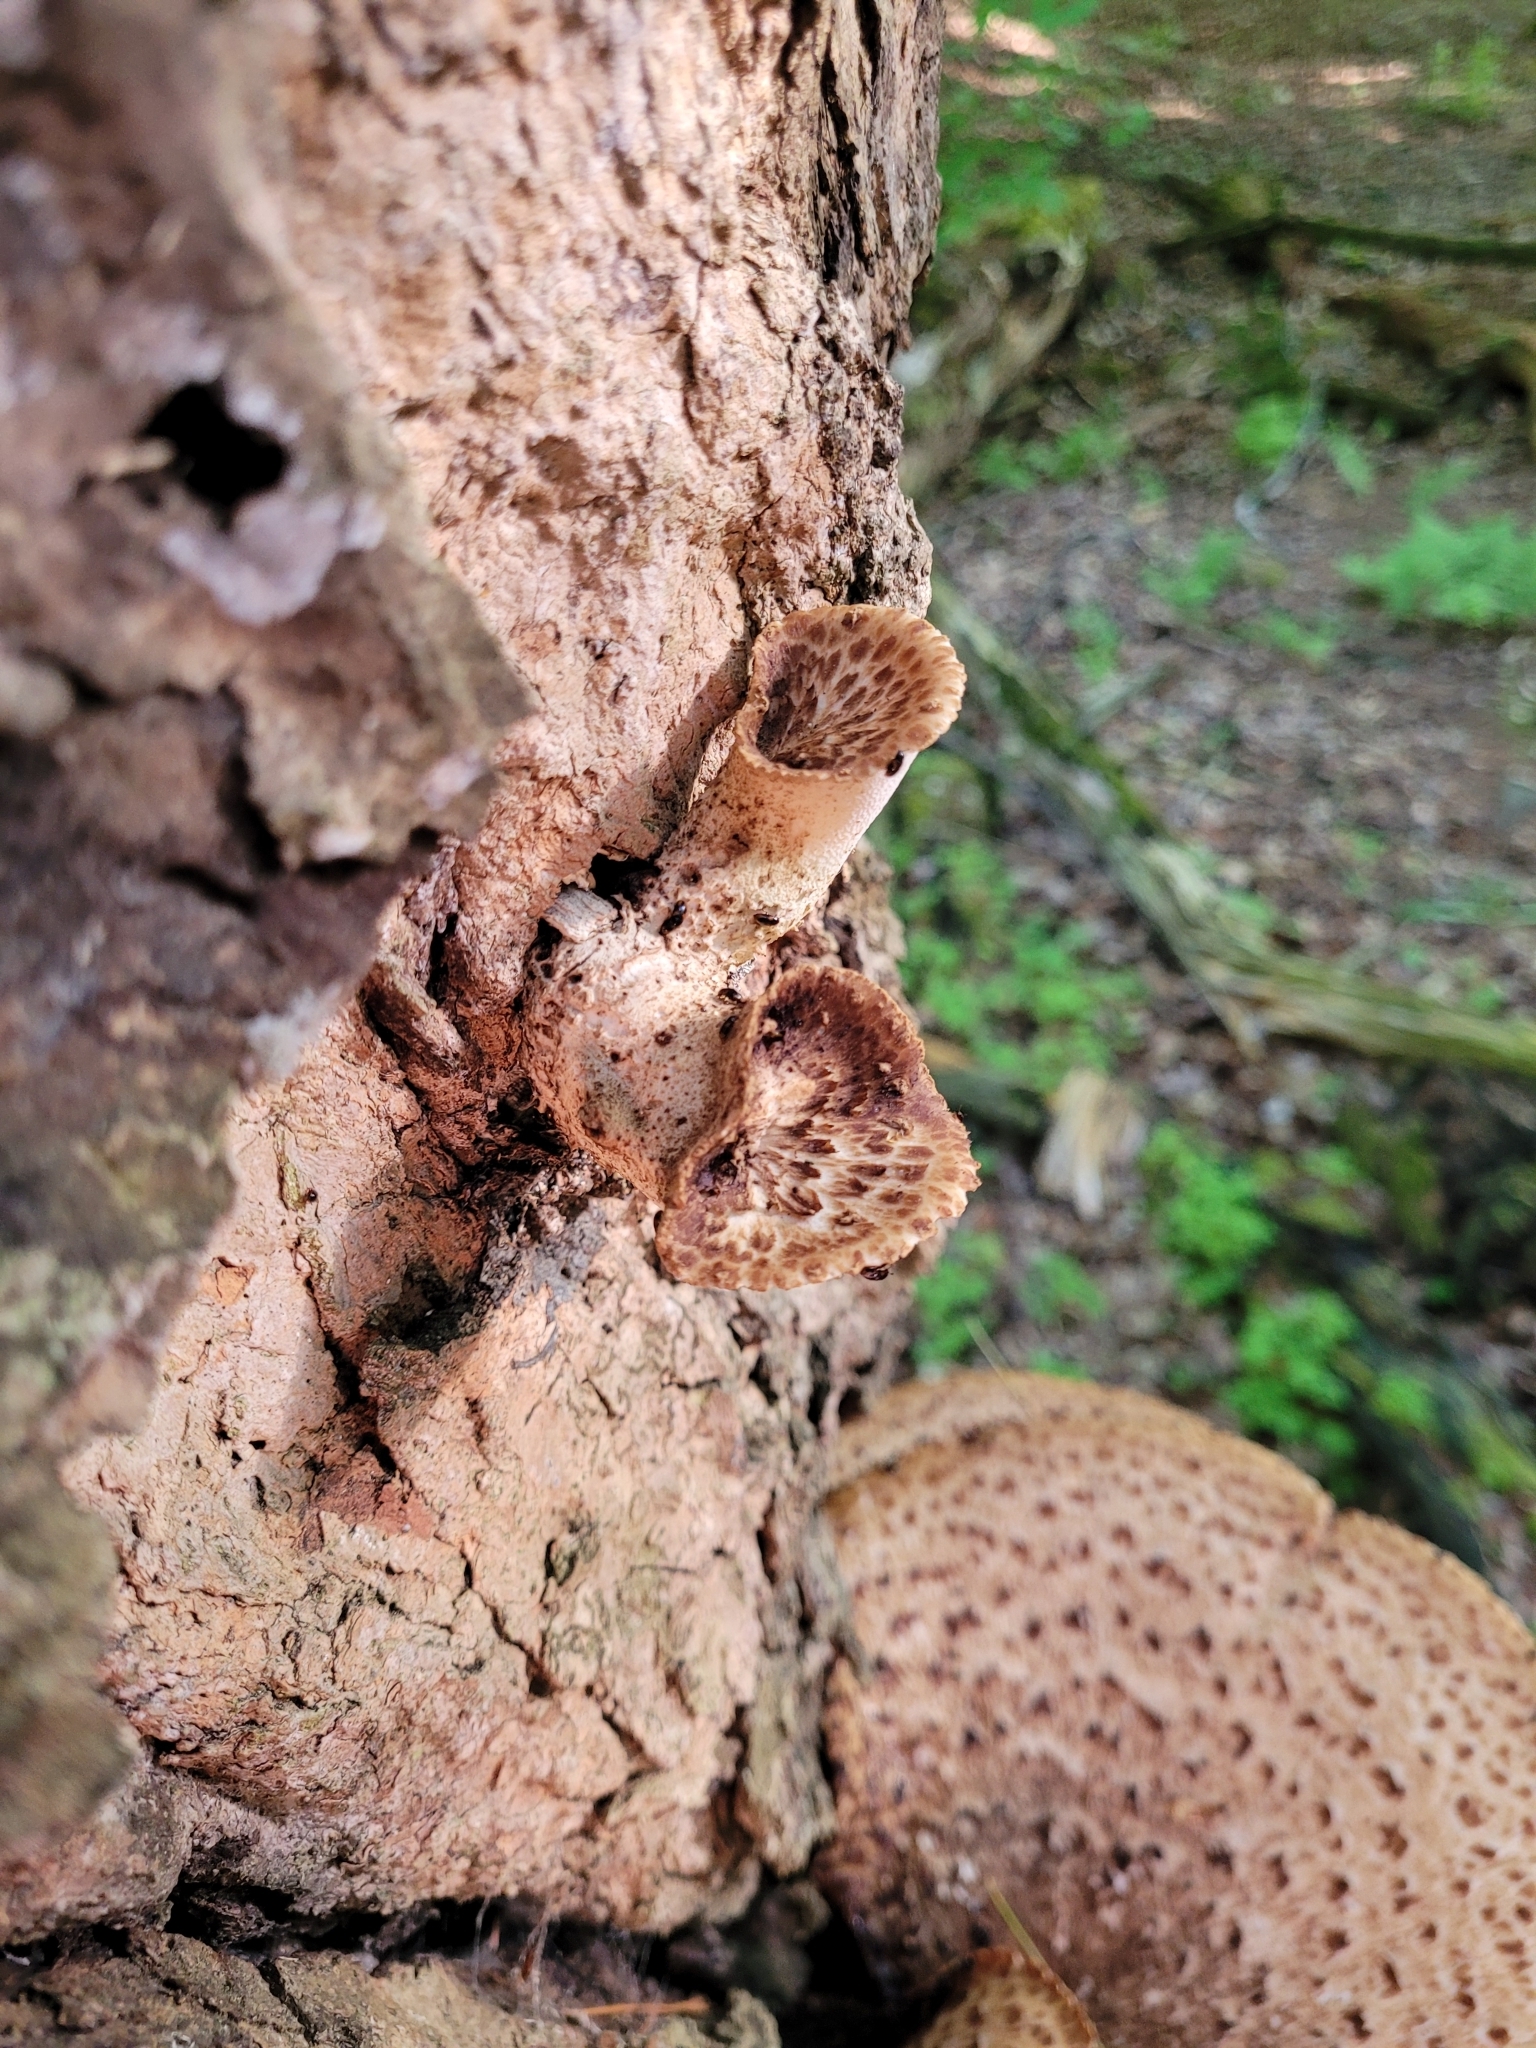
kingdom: Fungi
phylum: Basidiomycota
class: Agaricomycetes
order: Polyporales
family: Polyporaceae
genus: Cerioporus
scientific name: Cerioporus squamosus
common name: Dryad's saddle
